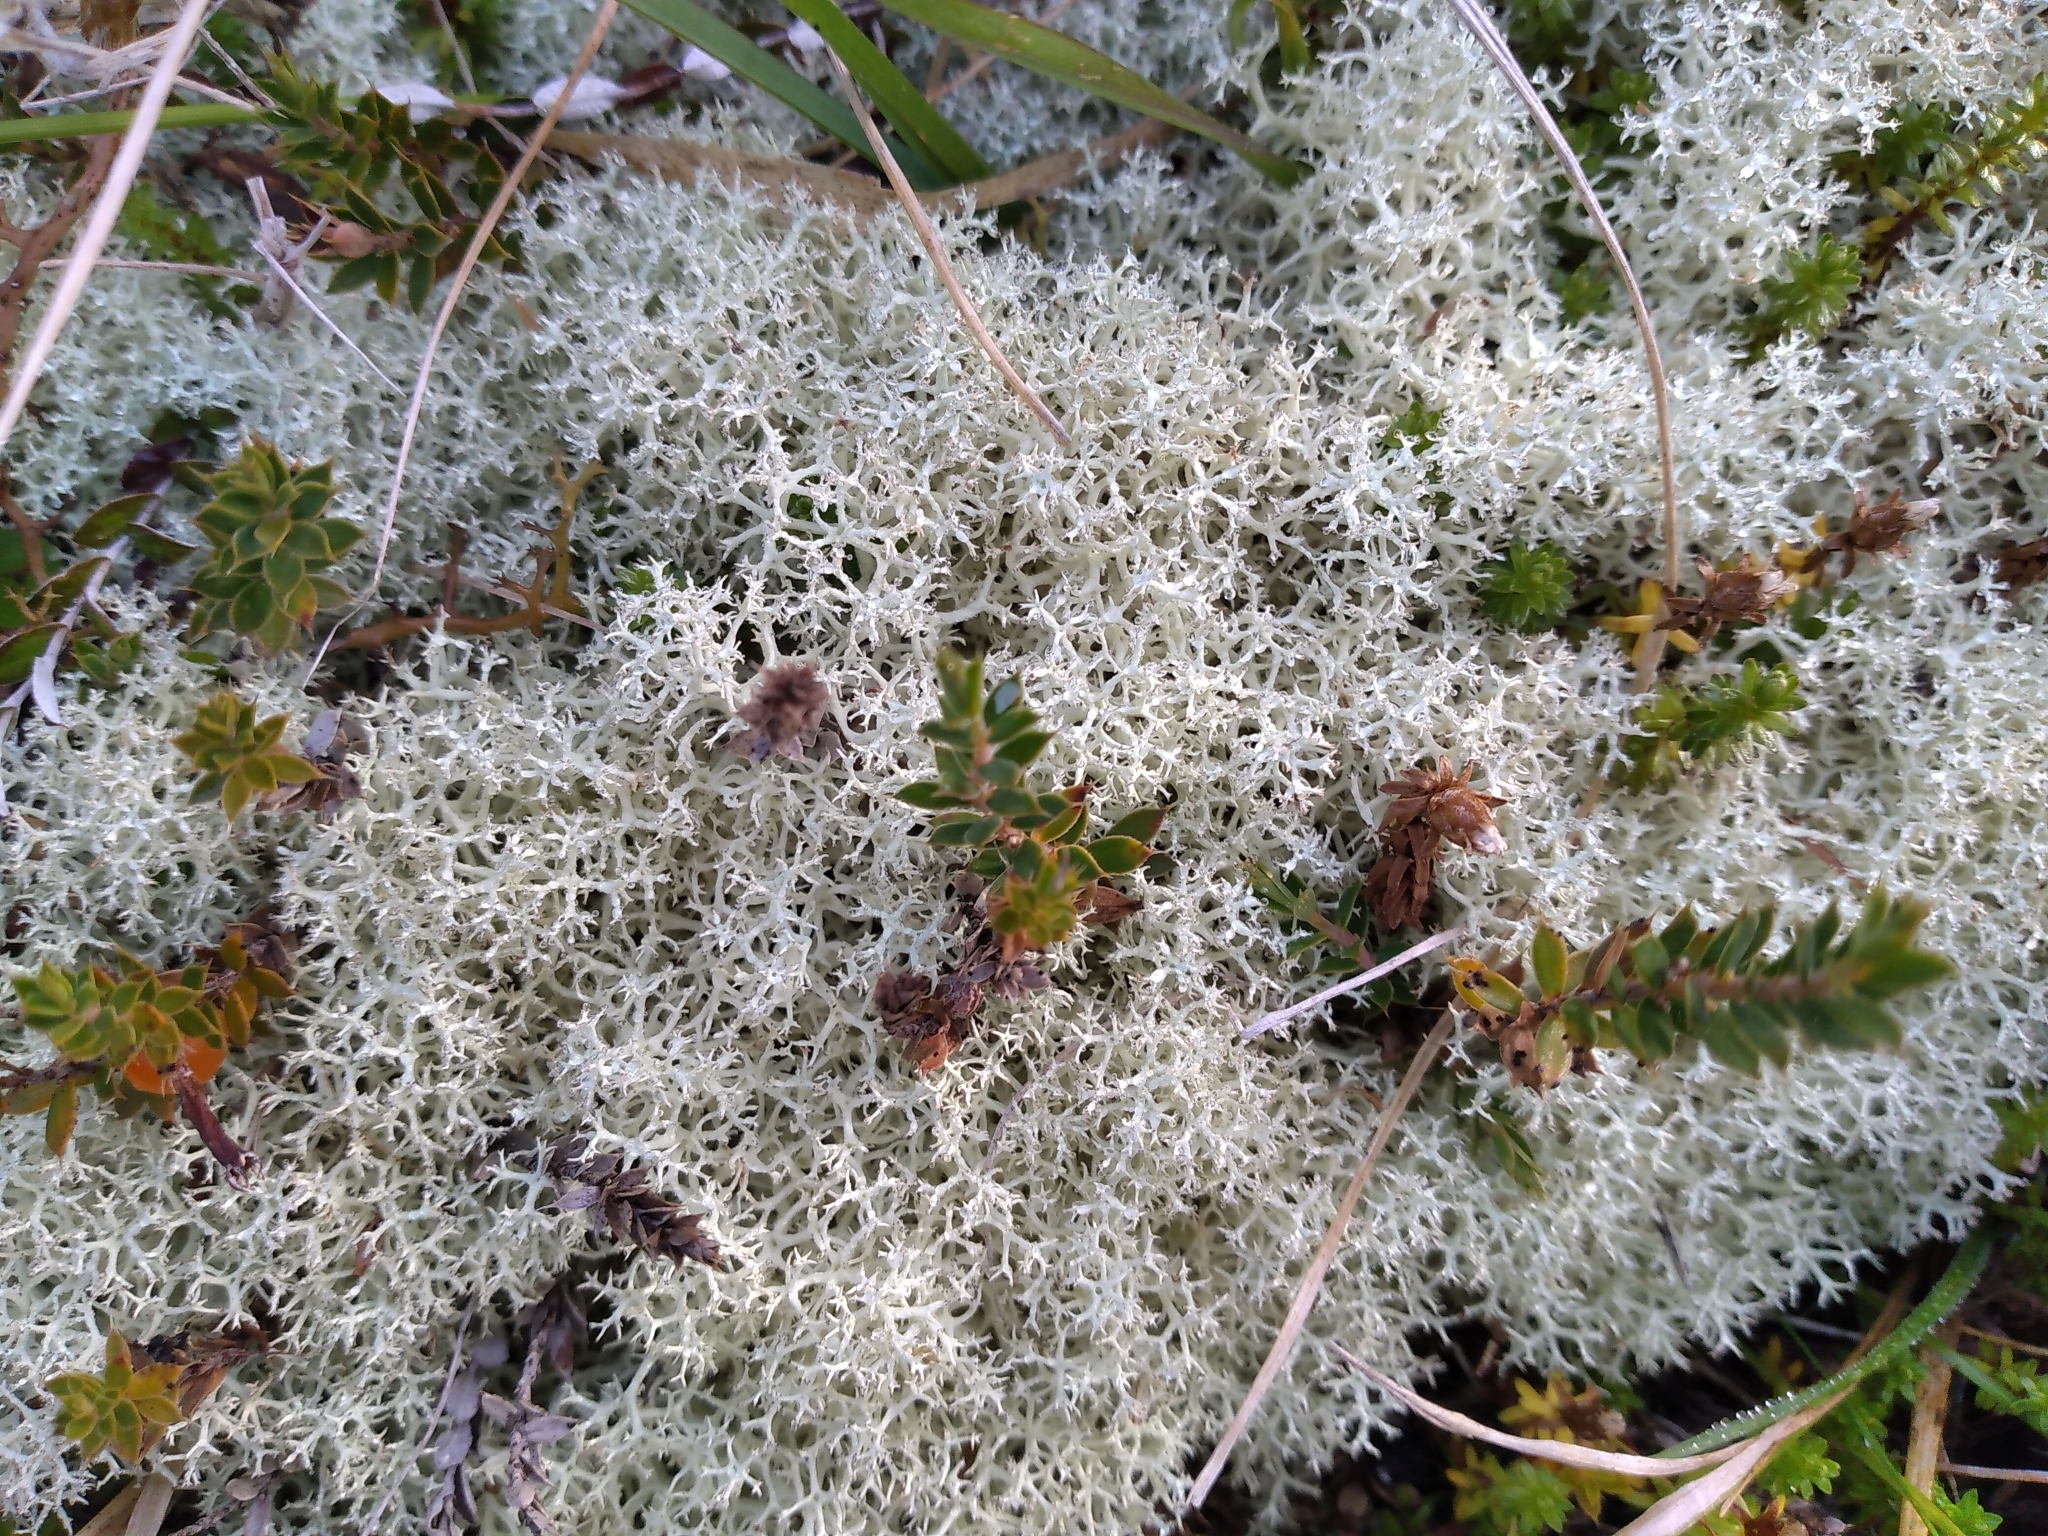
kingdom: Fungi
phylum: Ascomycota
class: Lecanoromycetes
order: Lecanorales
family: Cladoniaceae
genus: Cladonia
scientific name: Cladonia confusa
